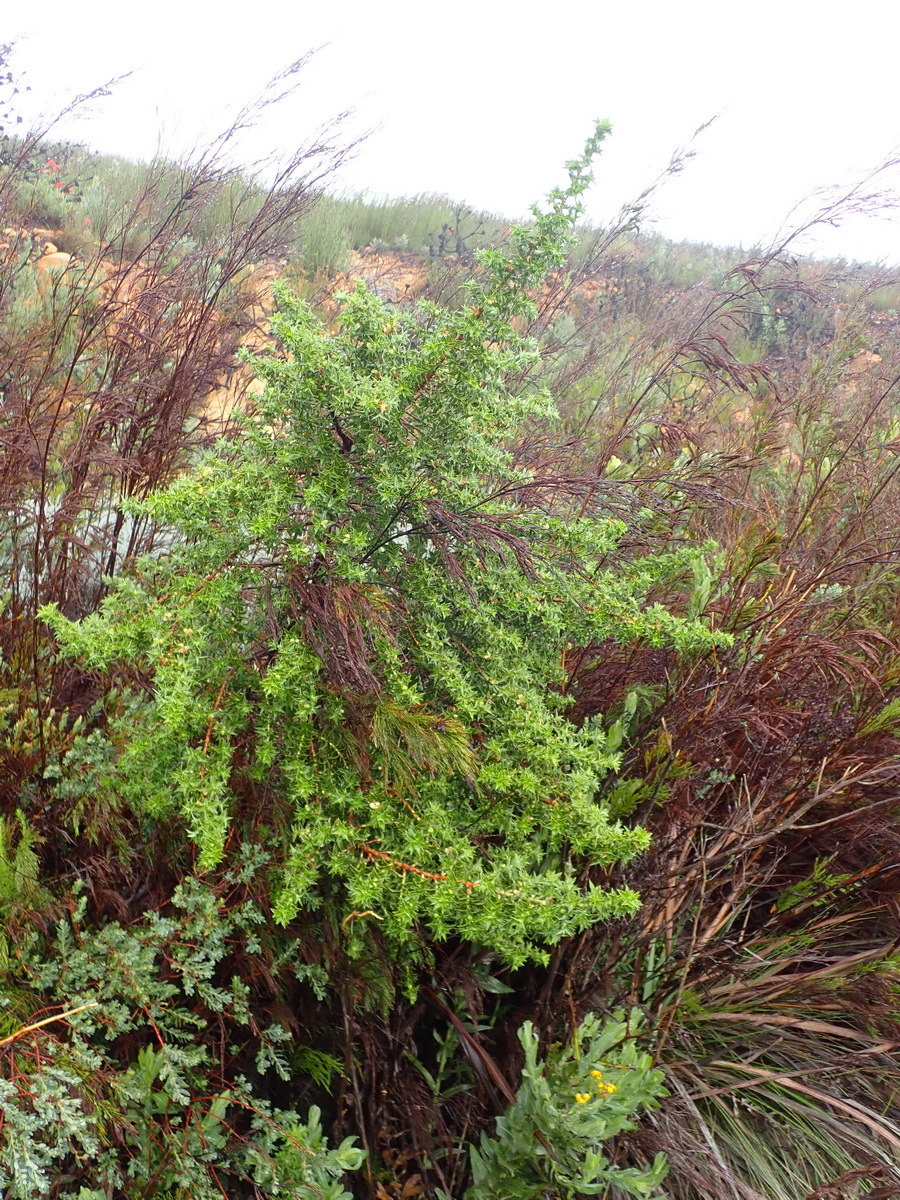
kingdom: Plantae
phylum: Tracheophyta
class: Magnoliopsida
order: Rosales
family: Rosaceae
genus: Cliffortia
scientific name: Cliffortia ilicifolia
